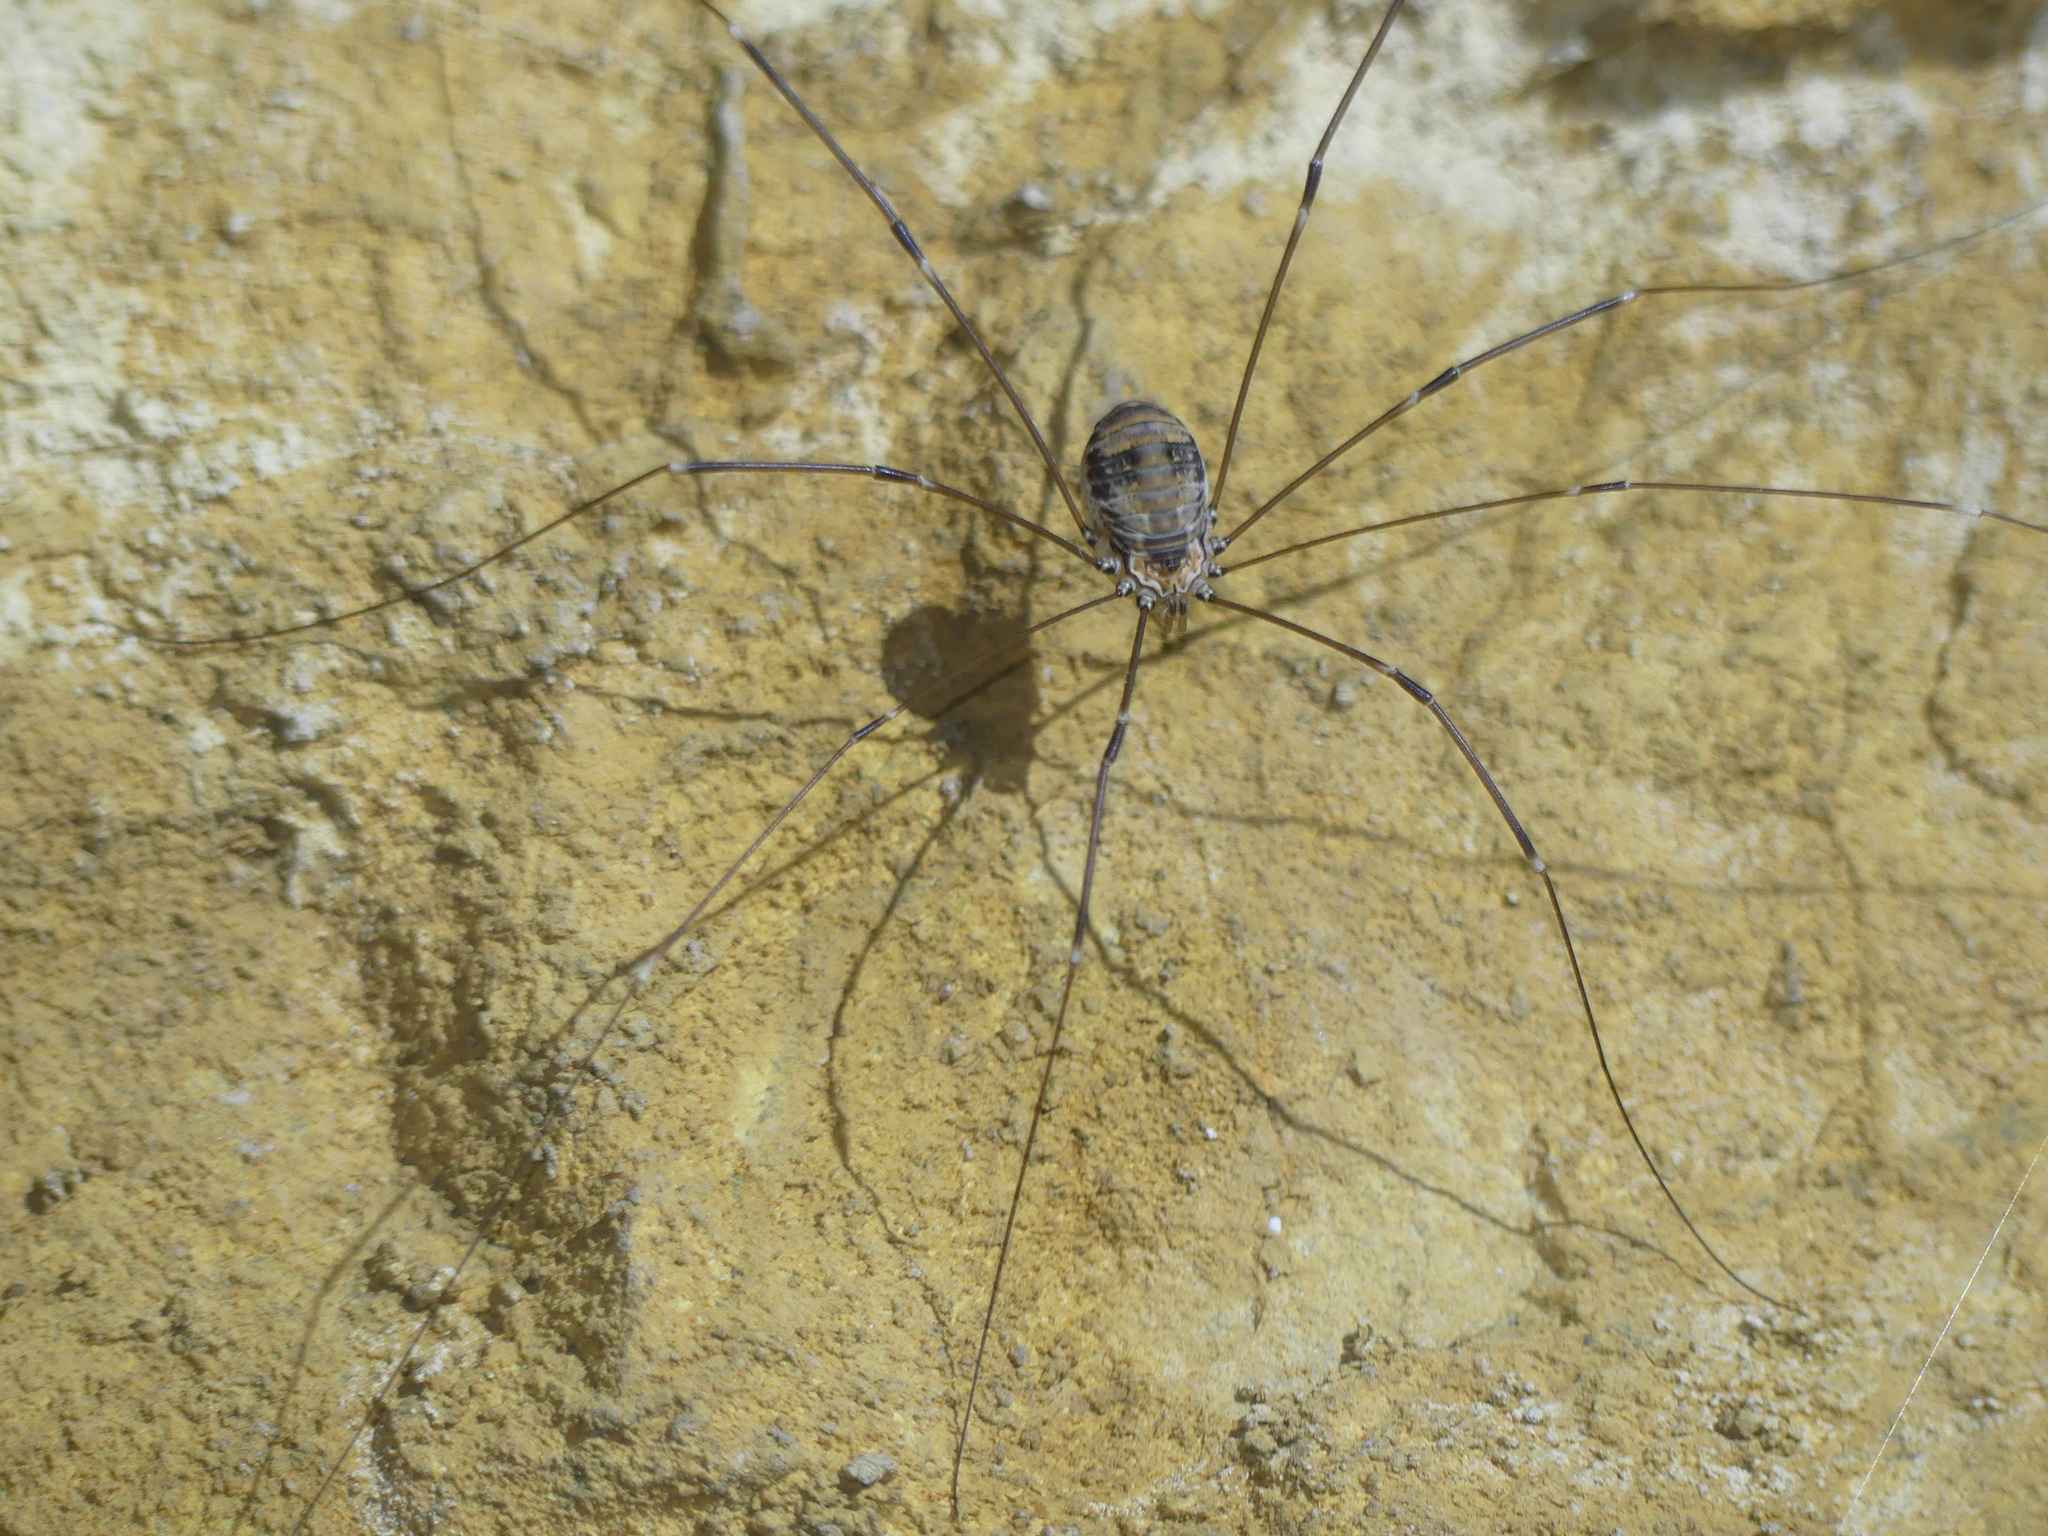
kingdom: Animalia
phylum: Arthropoda
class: Arachnida
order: Opiliones
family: Sclerosomatidae
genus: Leiobunum
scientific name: Leiobunum limbatum
